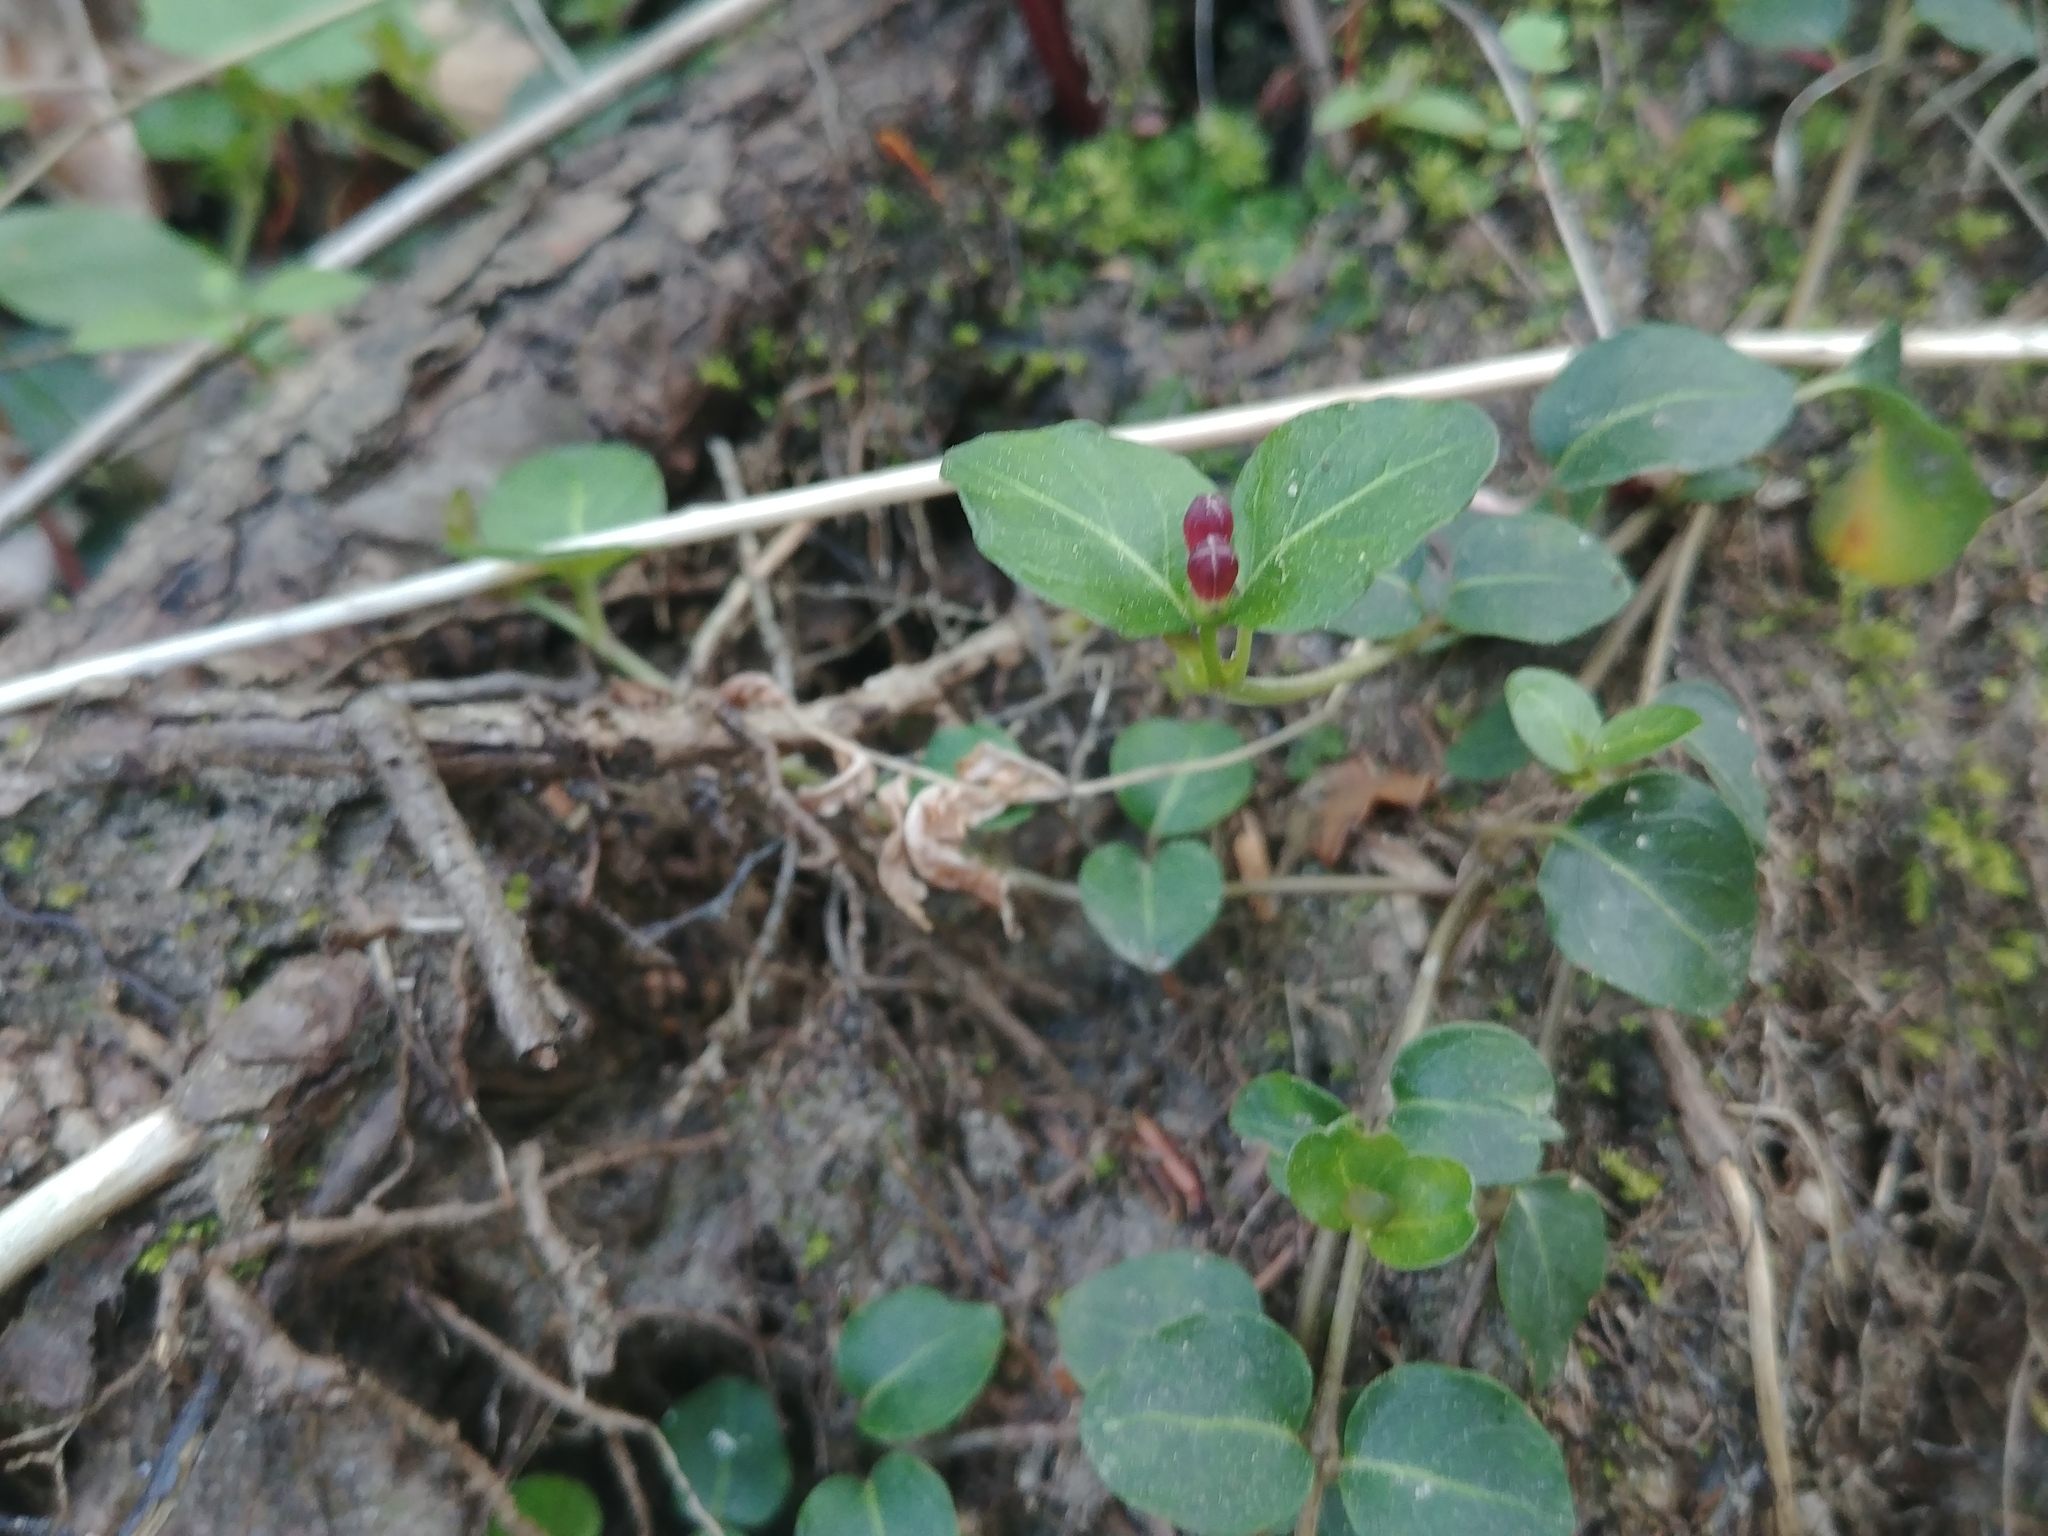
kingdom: Plantae
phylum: Tracheophyta
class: Magnoliopsida
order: Gentianales
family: Rubiaceae
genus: Mitchella
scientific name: Mitchella repens
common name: Partridge-berry
